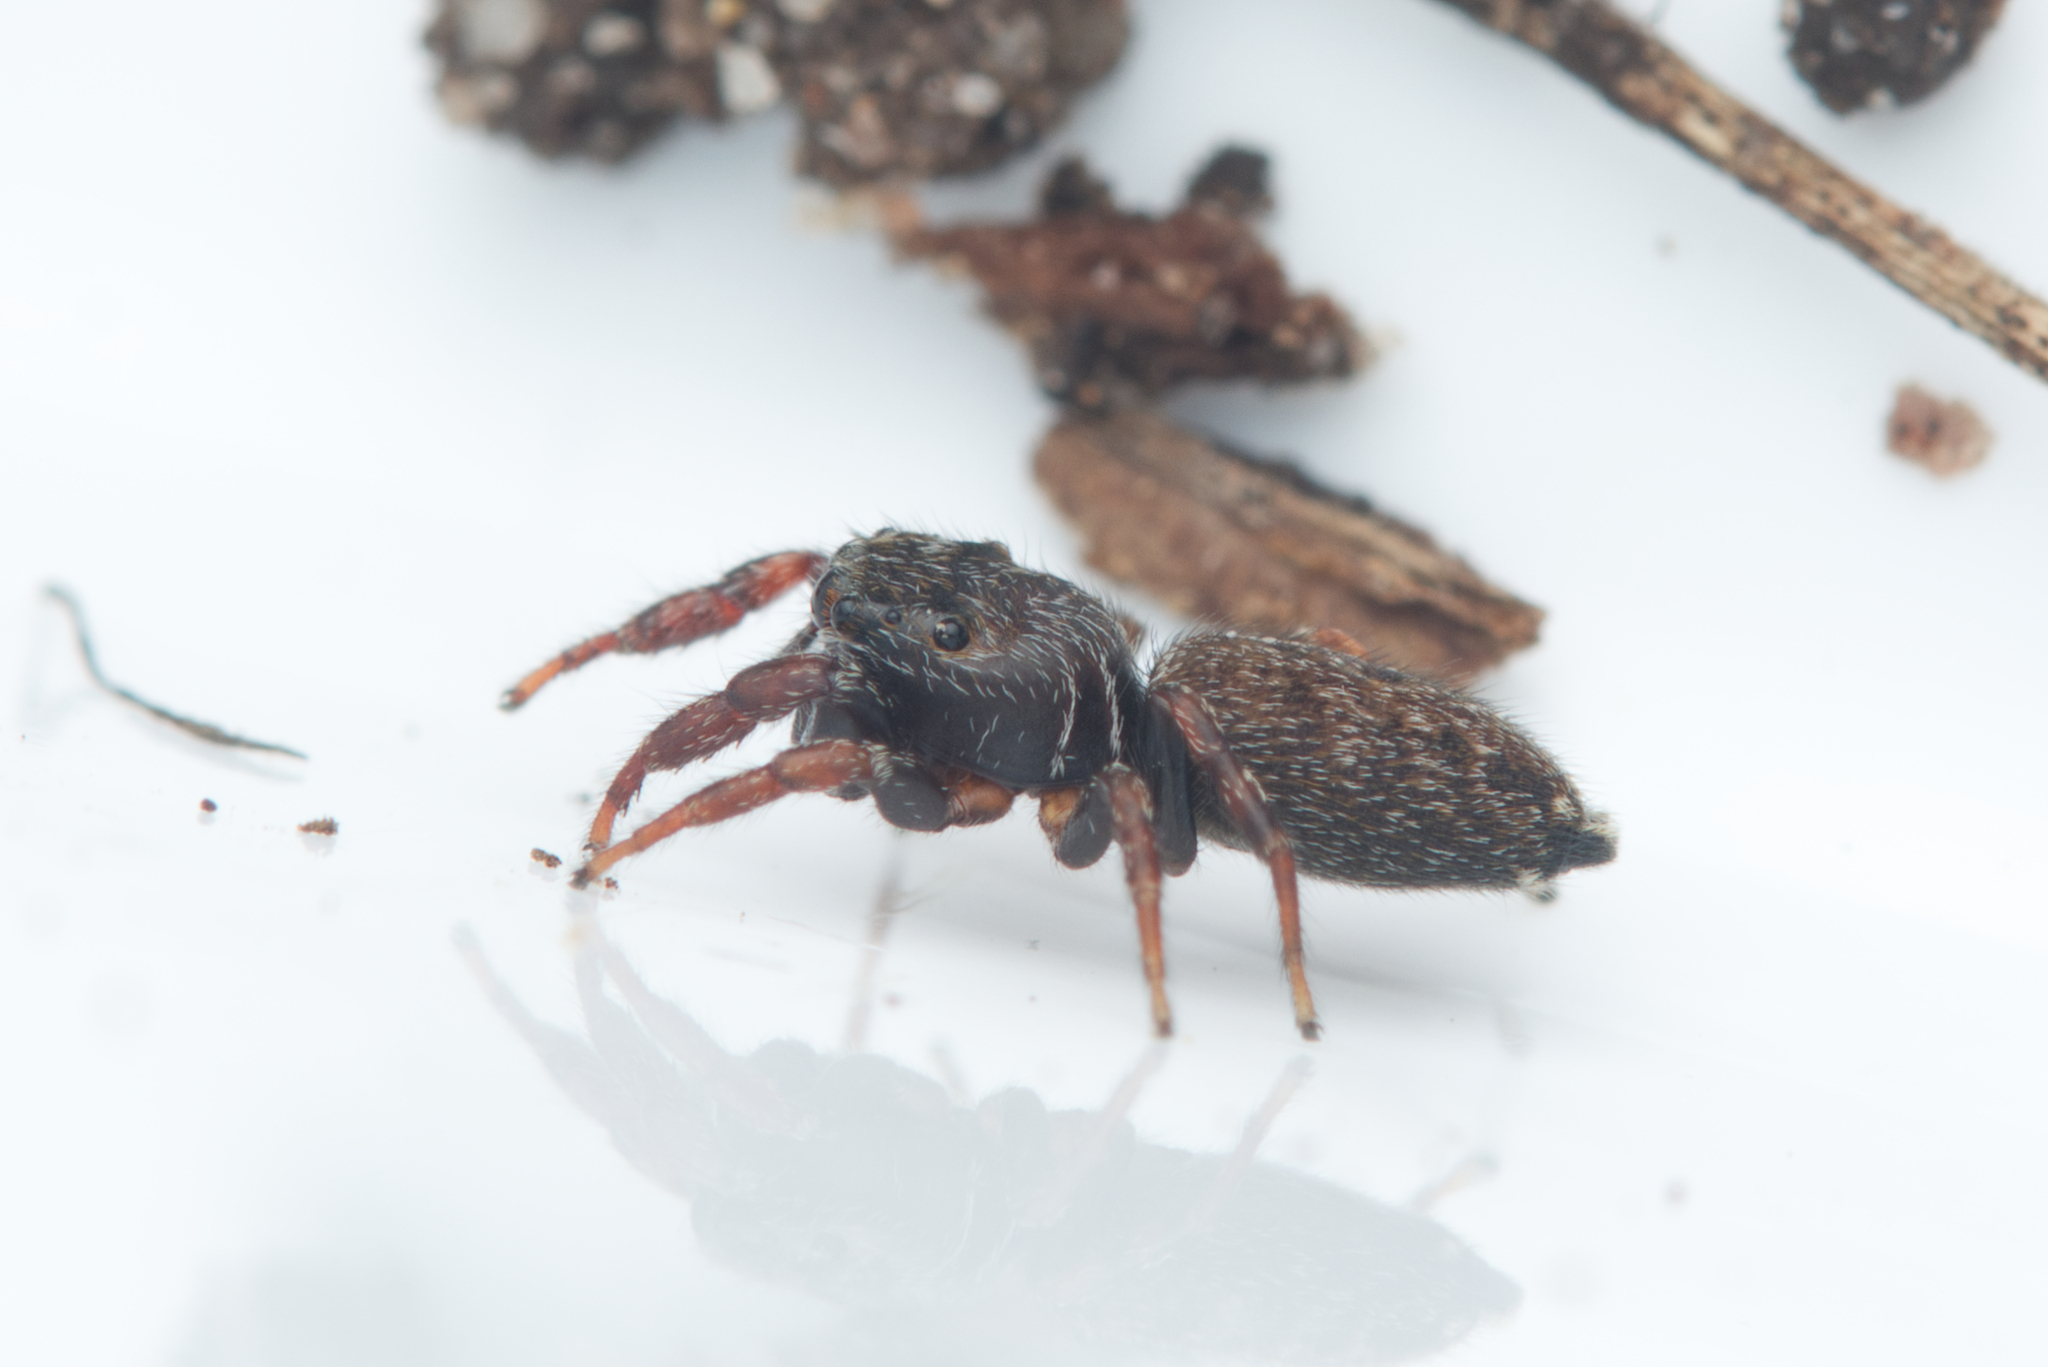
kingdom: Animalia
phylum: Arthropoda
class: Arachnida
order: Araneae
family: Salticidae
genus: Pungalina
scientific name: Pungalina albobarbata
